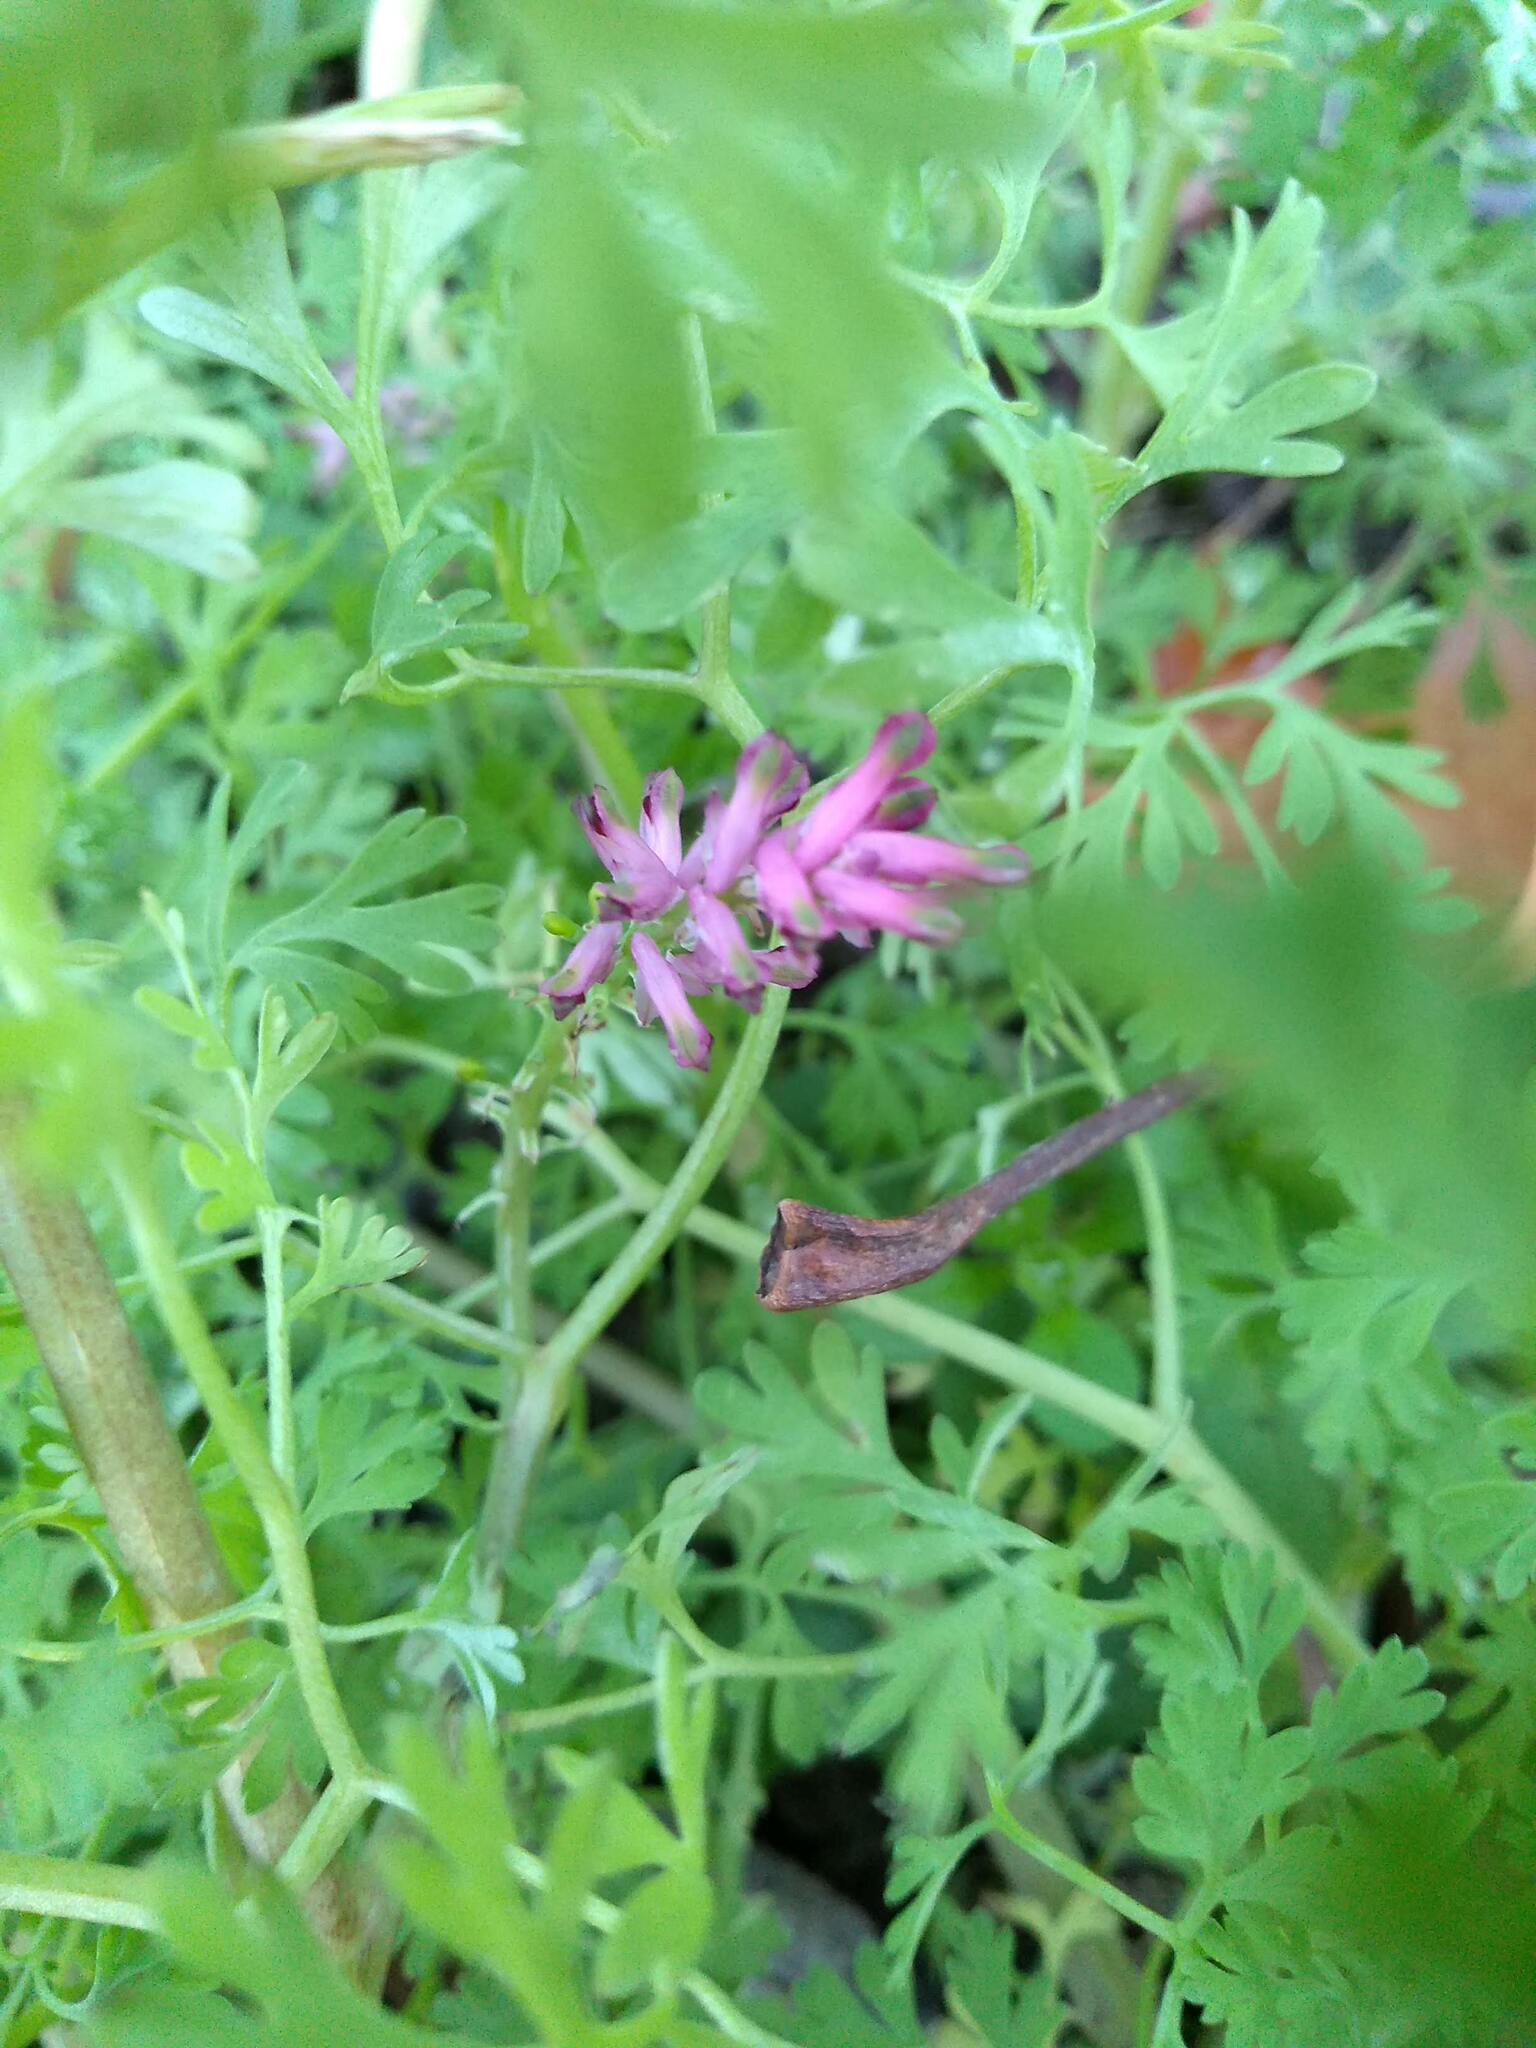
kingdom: Plantae
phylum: Tracheophyta
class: Magnoliopsida
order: Ranunculales
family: Papaveraceae
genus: Fumaria
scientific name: Fumaria officinalis
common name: Common fumitory
